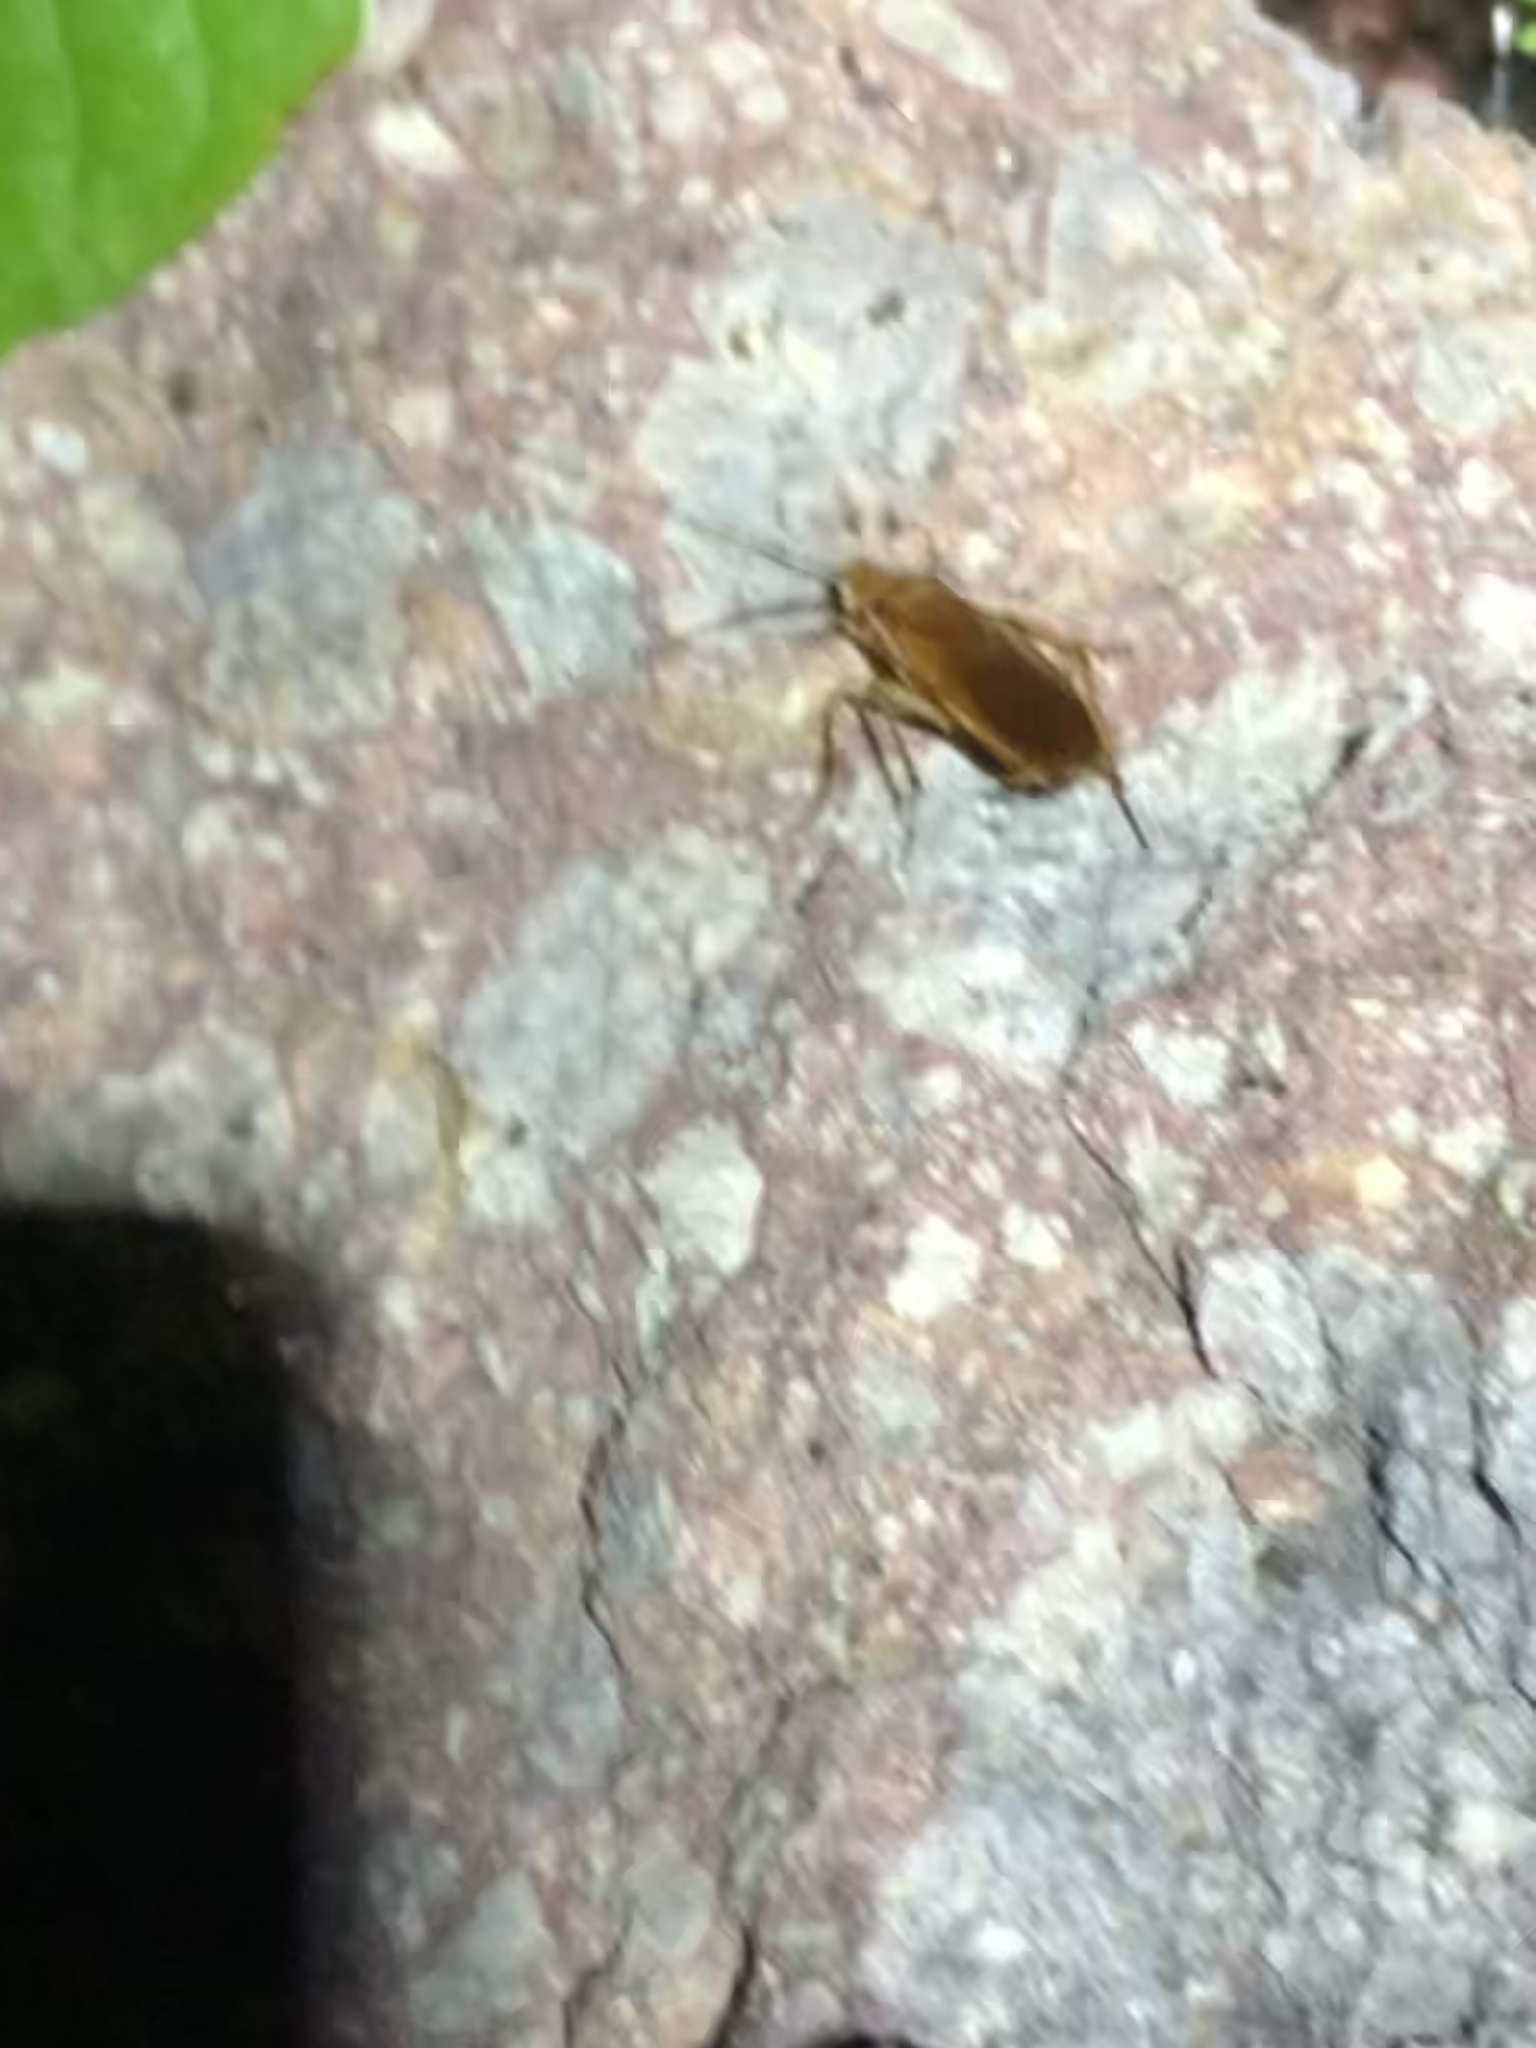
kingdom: Animalia
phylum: Arthropoda
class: Insecta
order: Blattodea
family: Blattidae
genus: Periplaneta
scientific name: Periplaneta lateralis
